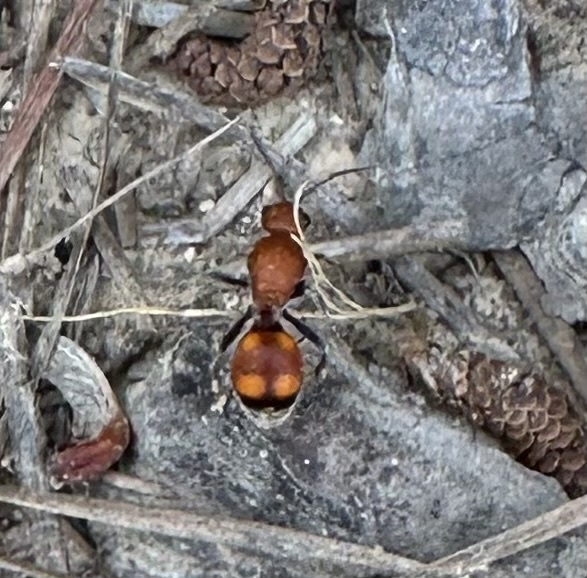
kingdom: Animalia
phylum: Arthropoda
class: Insecta
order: Hymenoptera
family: Mutillidae
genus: Dasymutilla
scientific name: Dasymutilla
